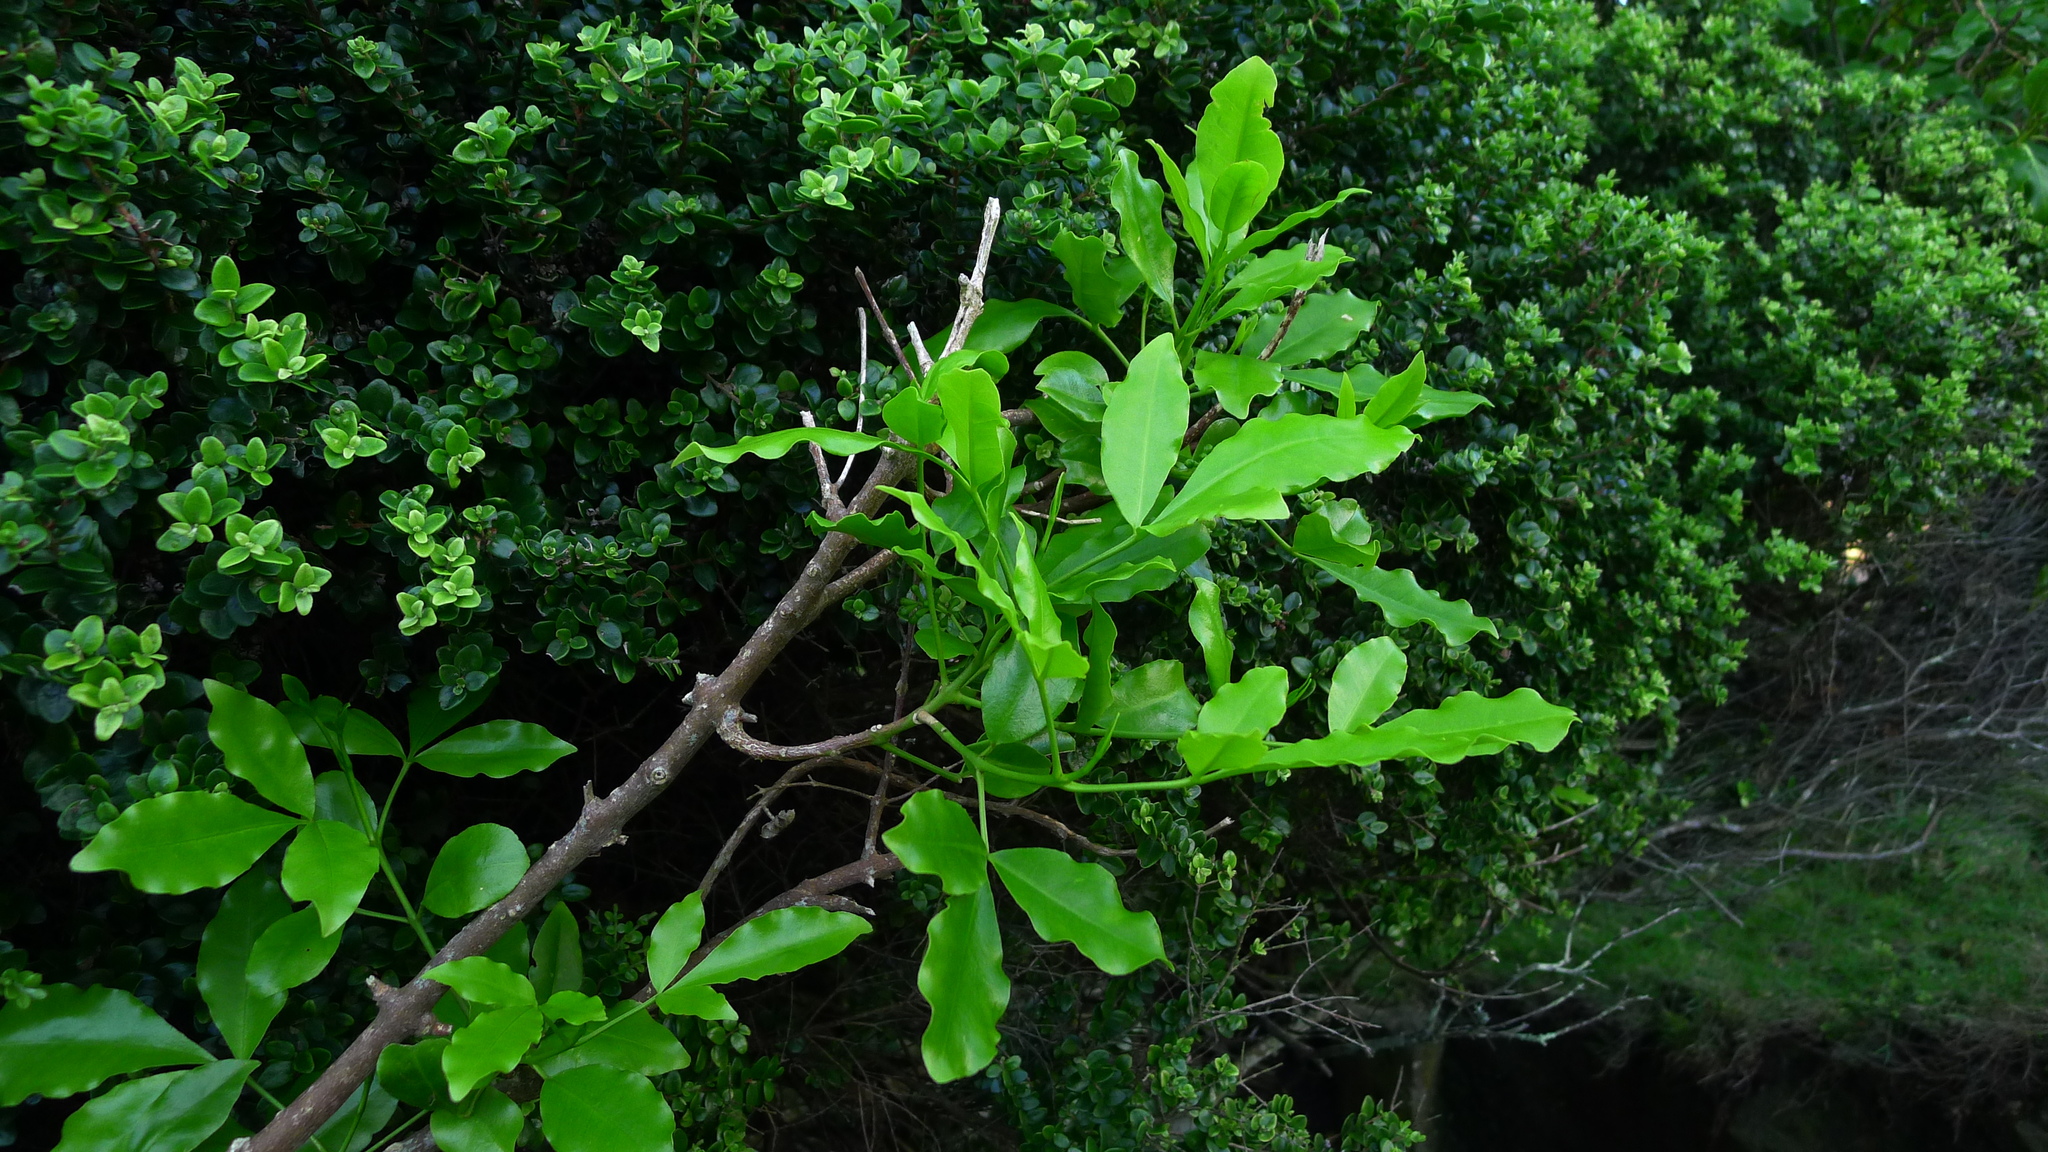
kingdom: Plantae
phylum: Tracheophyta
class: Magnoliopsida
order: Sapindales
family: Rutaceae
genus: Melicope
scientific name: Melicope ternata
